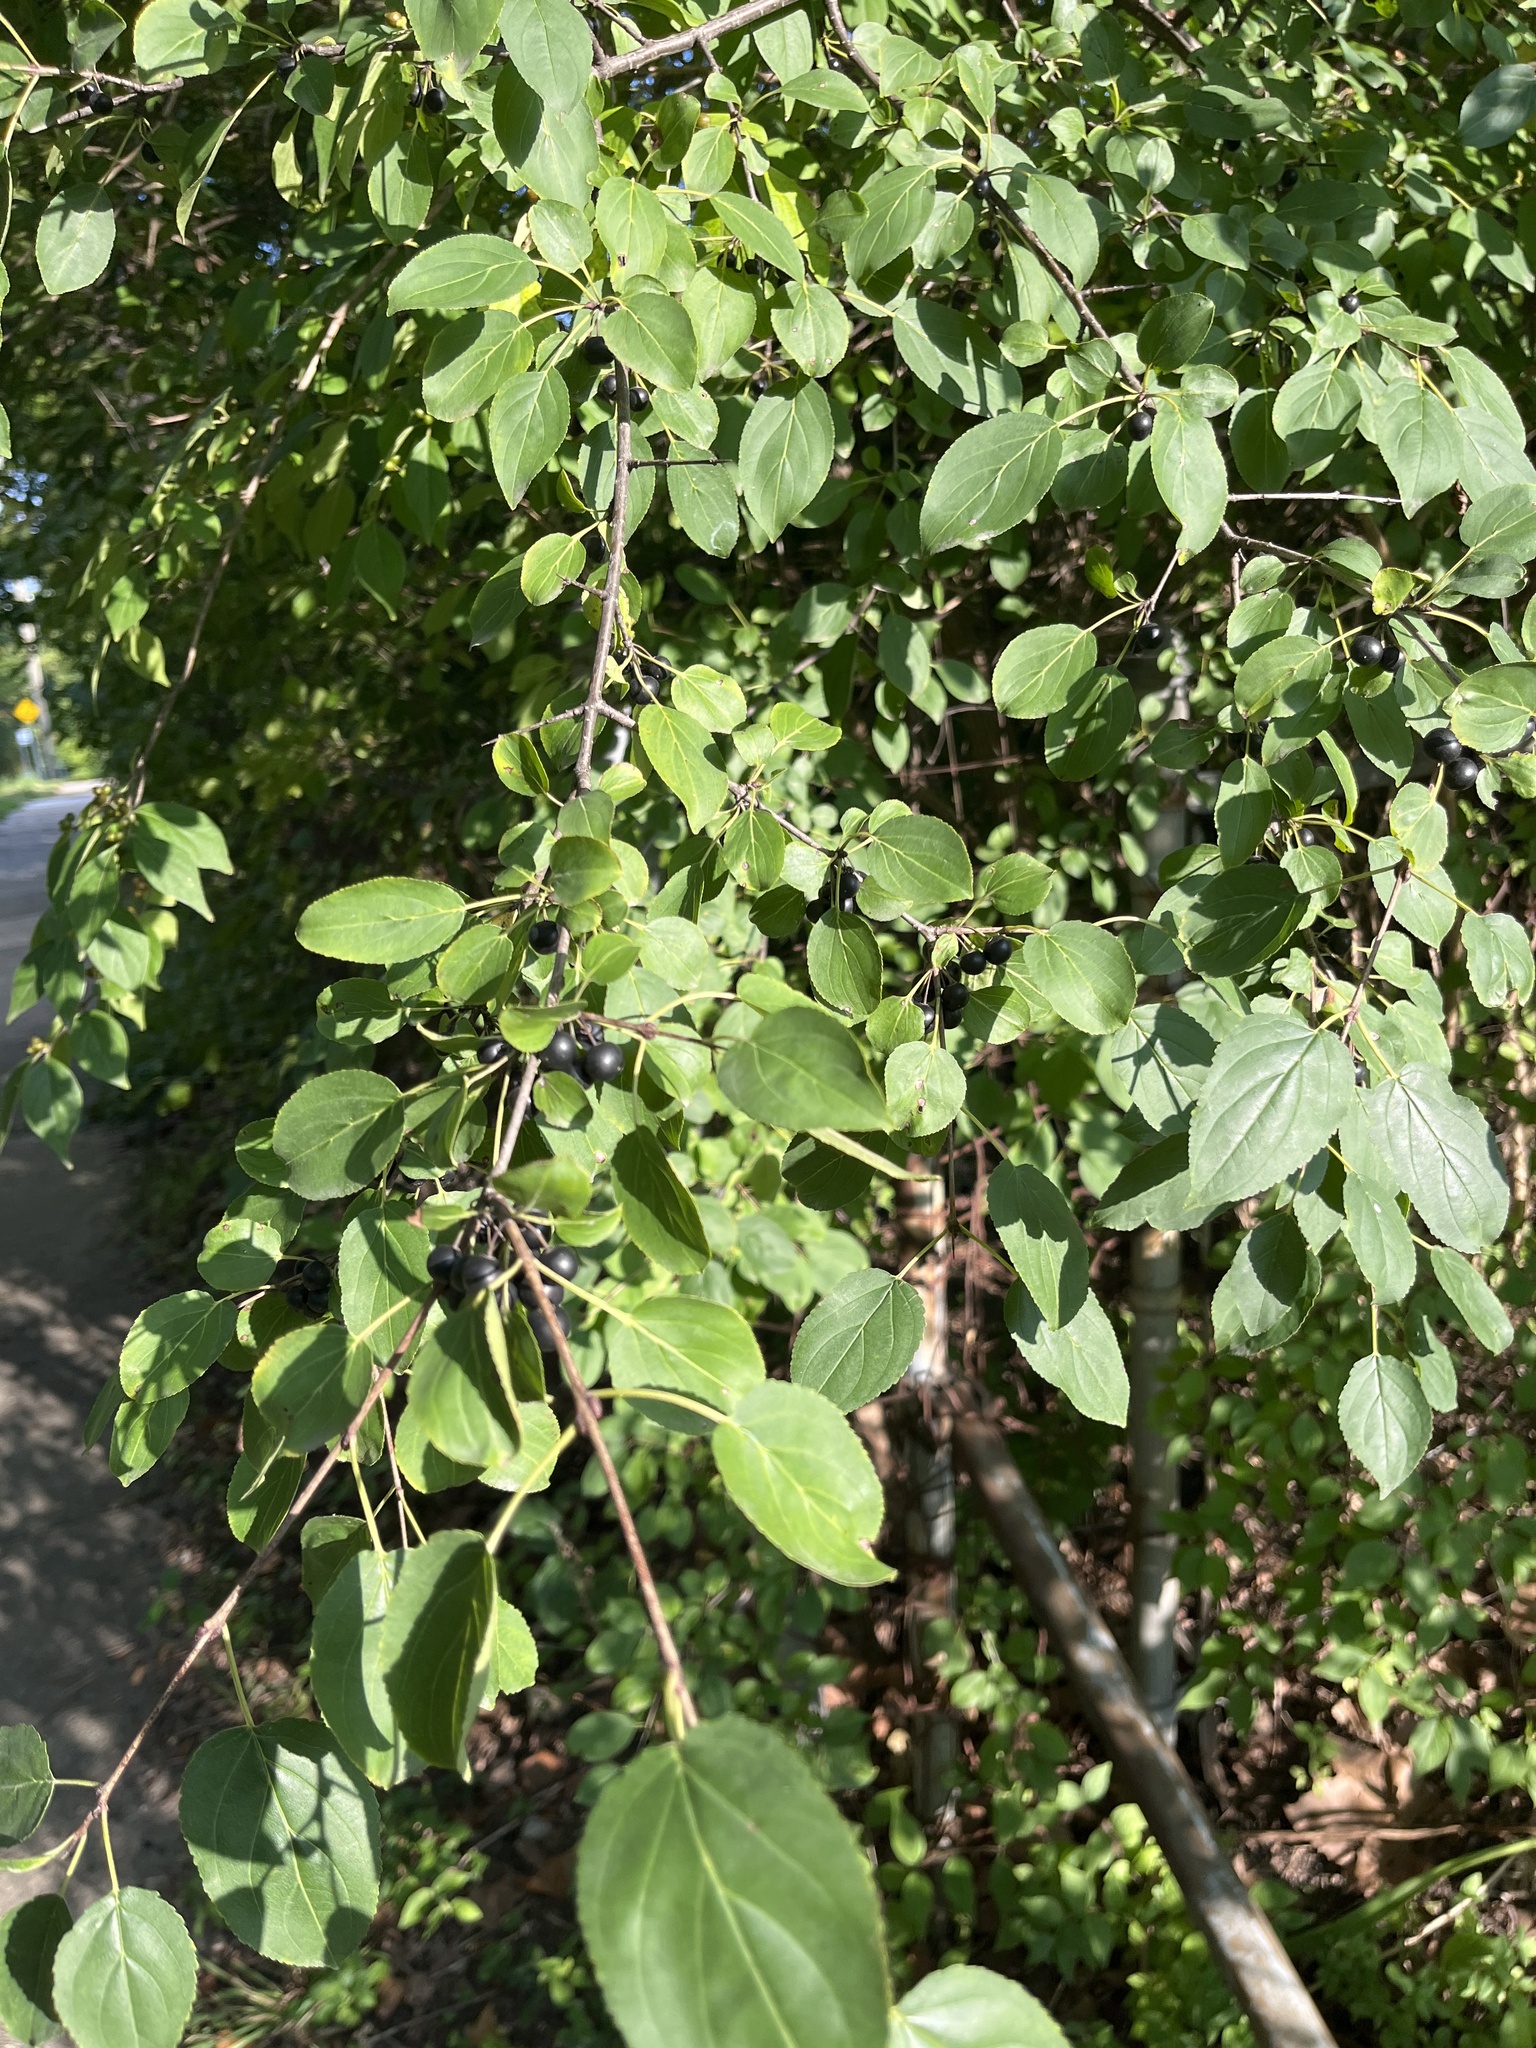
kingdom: Plantae
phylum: Tracheophyta
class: Magnoliopsida
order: Rosales
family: Rhamnaceae
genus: Rhamnus
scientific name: Rhamnus cathartica
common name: Common buckthorn
